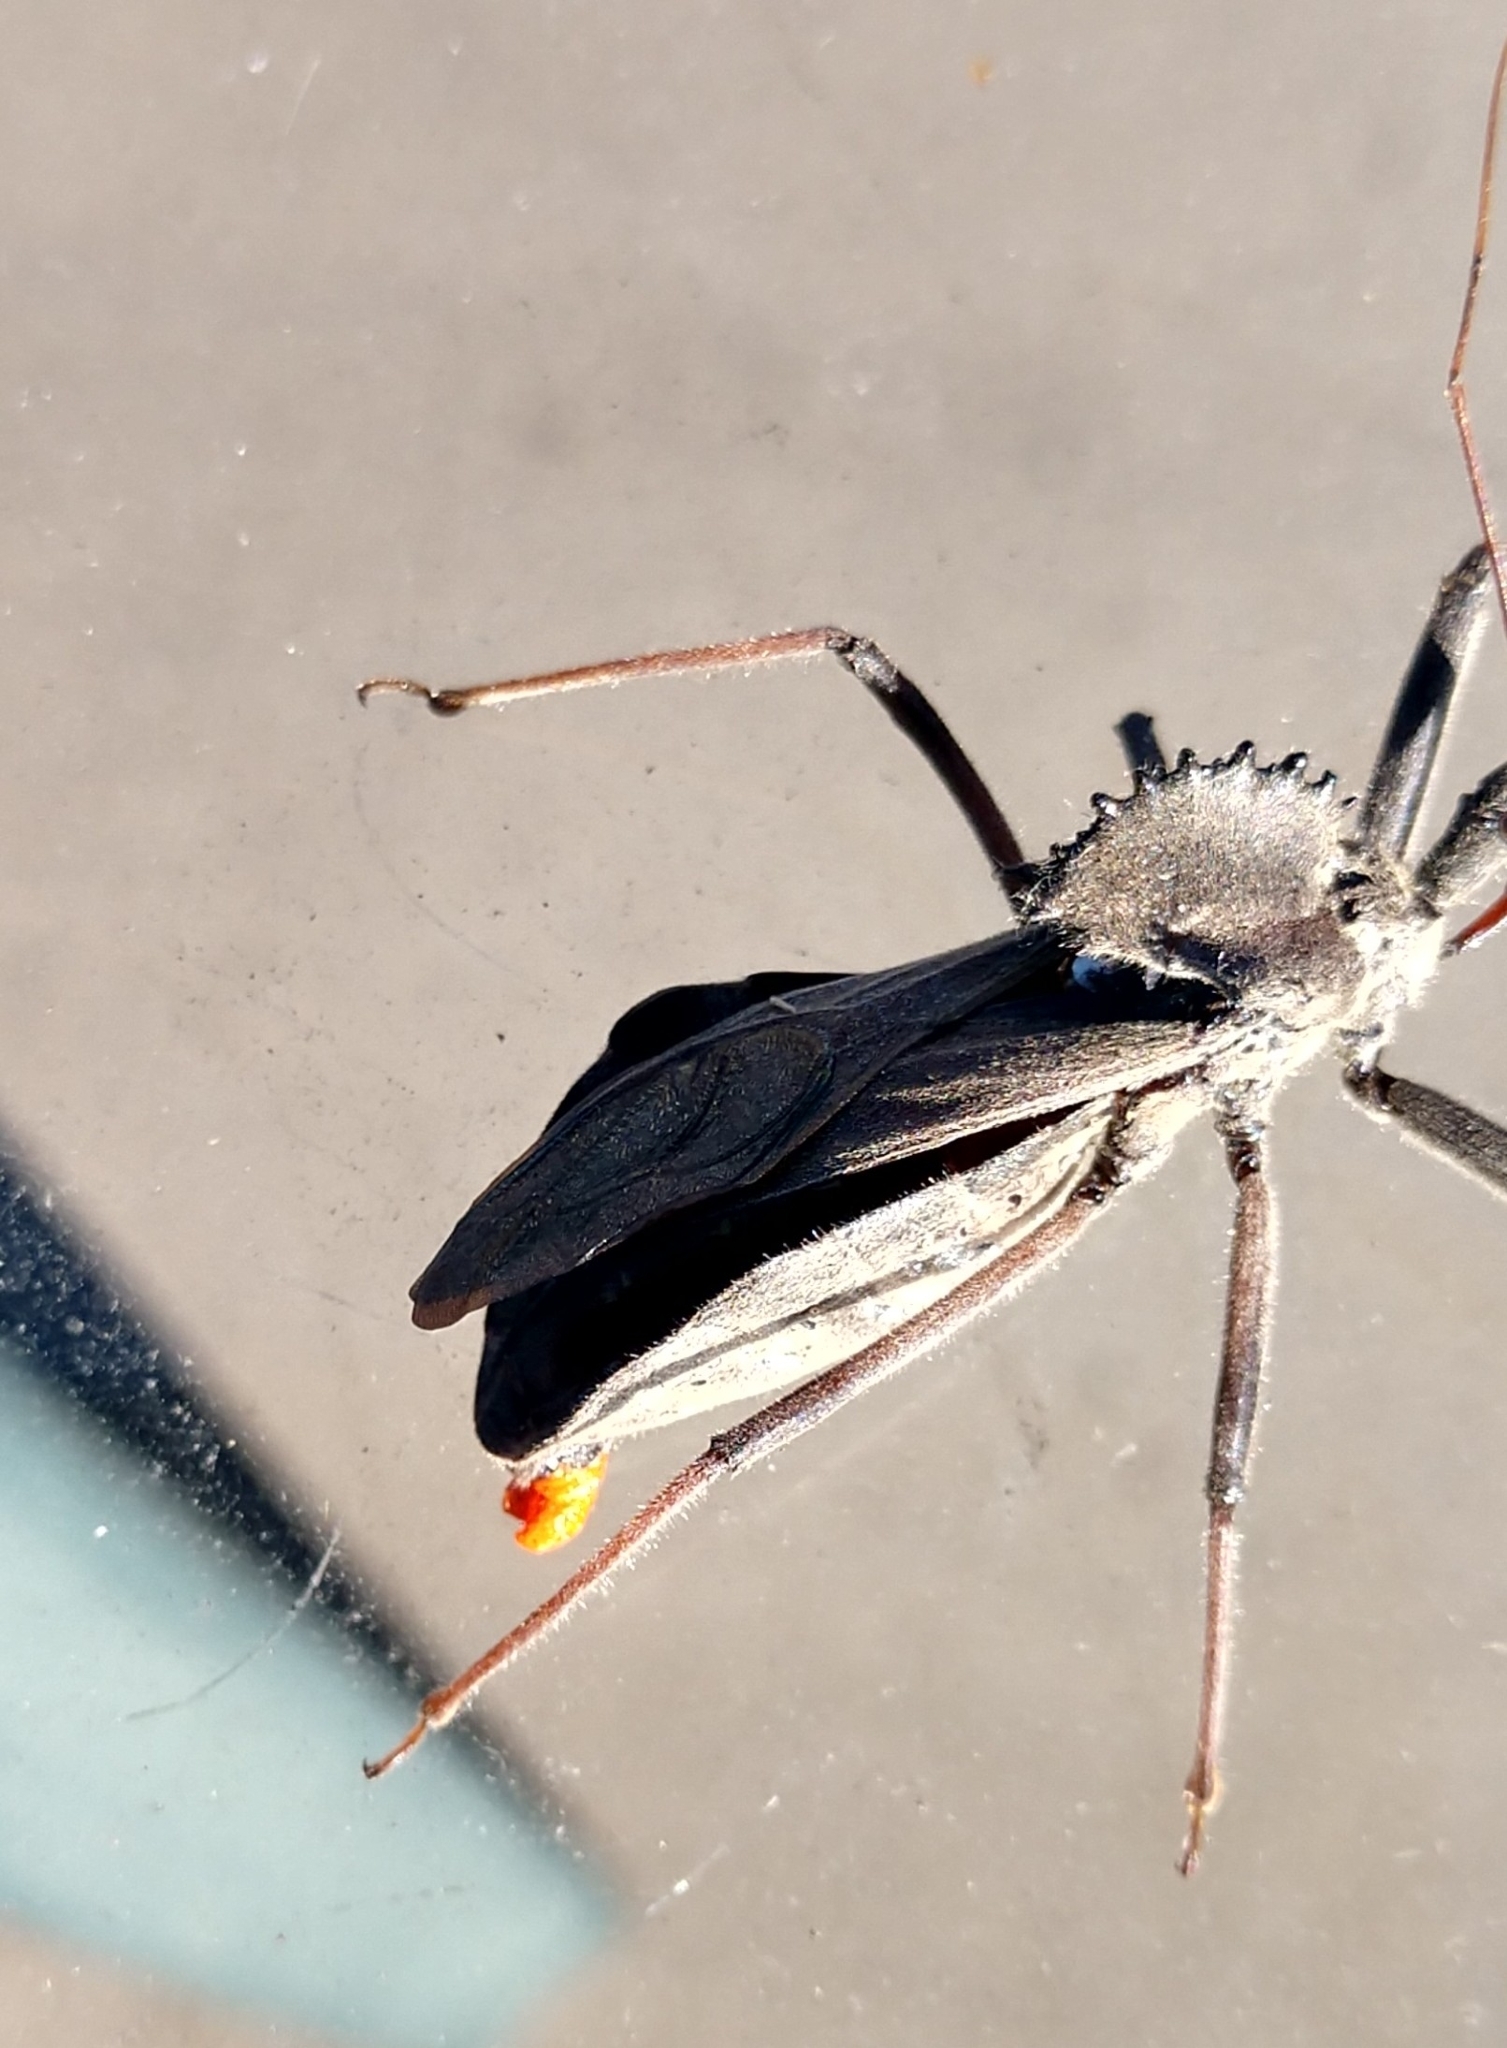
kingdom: Animalia
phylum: Arthropoda
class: Insecta
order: Hemiptera
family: Reduviidae
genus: Arilus
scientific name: Arilus cristatus
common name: North american wheel bug
